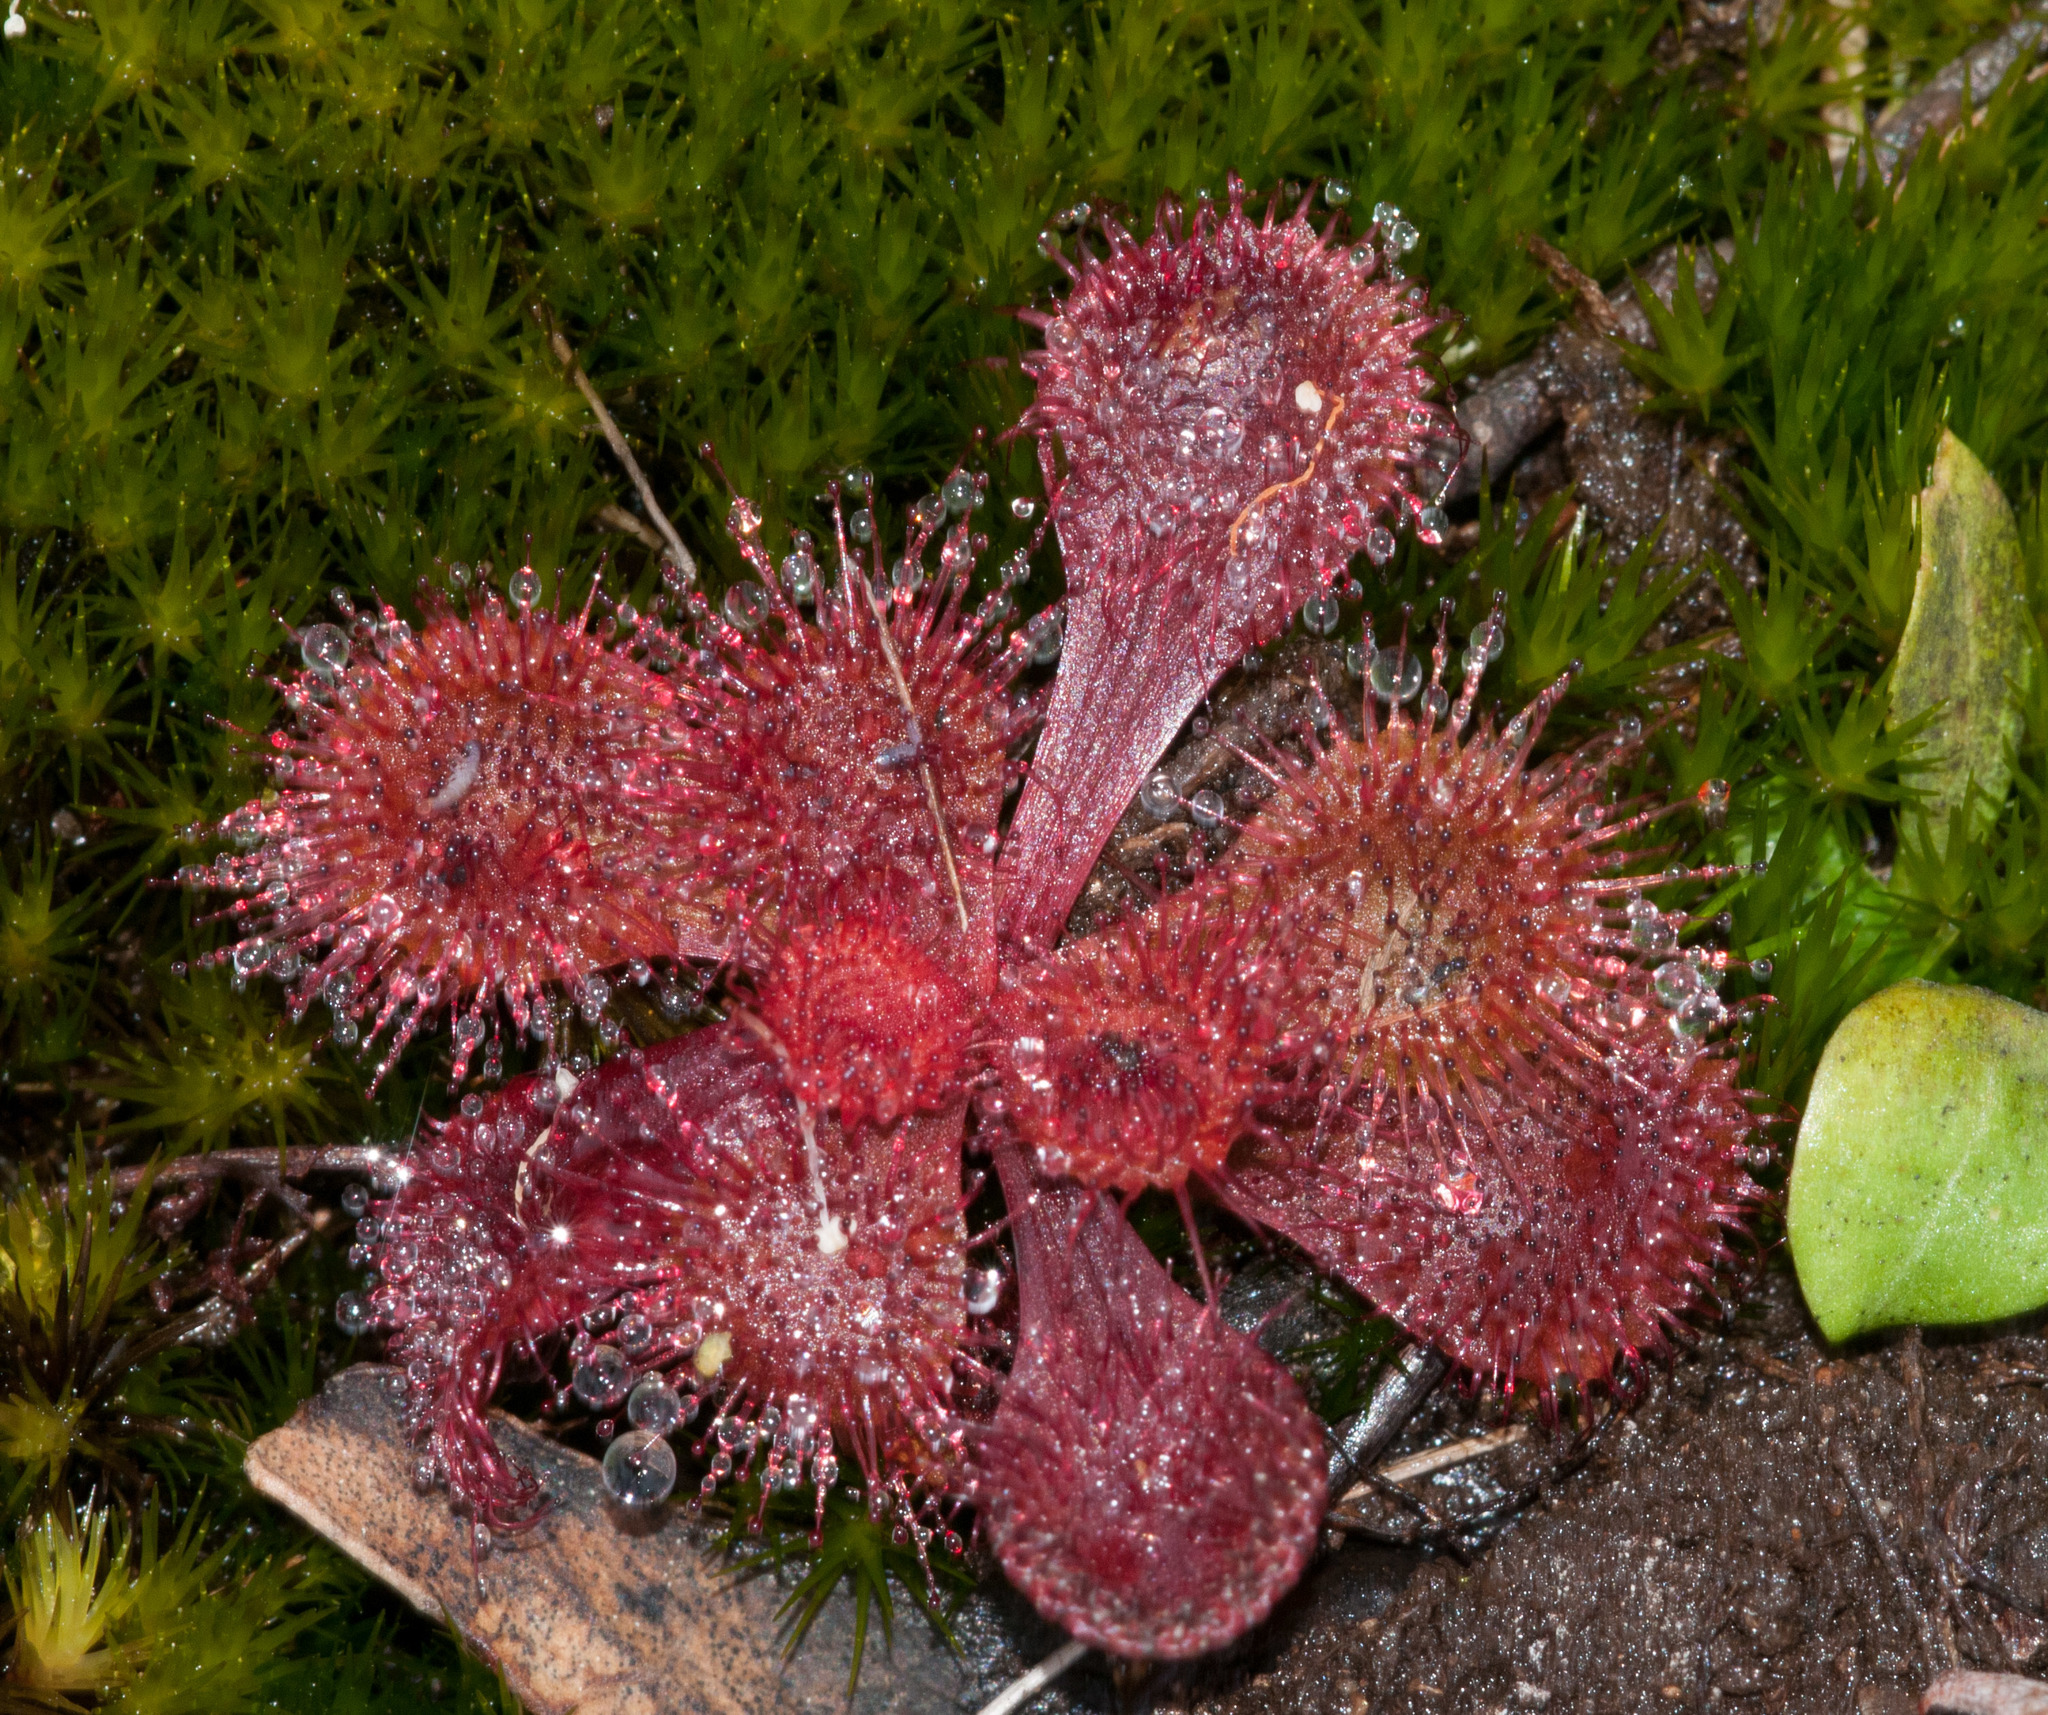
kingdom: Plantae
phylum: Tracheophyta
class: Magnoliopsida
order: Caryophyllales
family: Droseraceae
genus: Drosera
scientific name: Drosera aberrans
